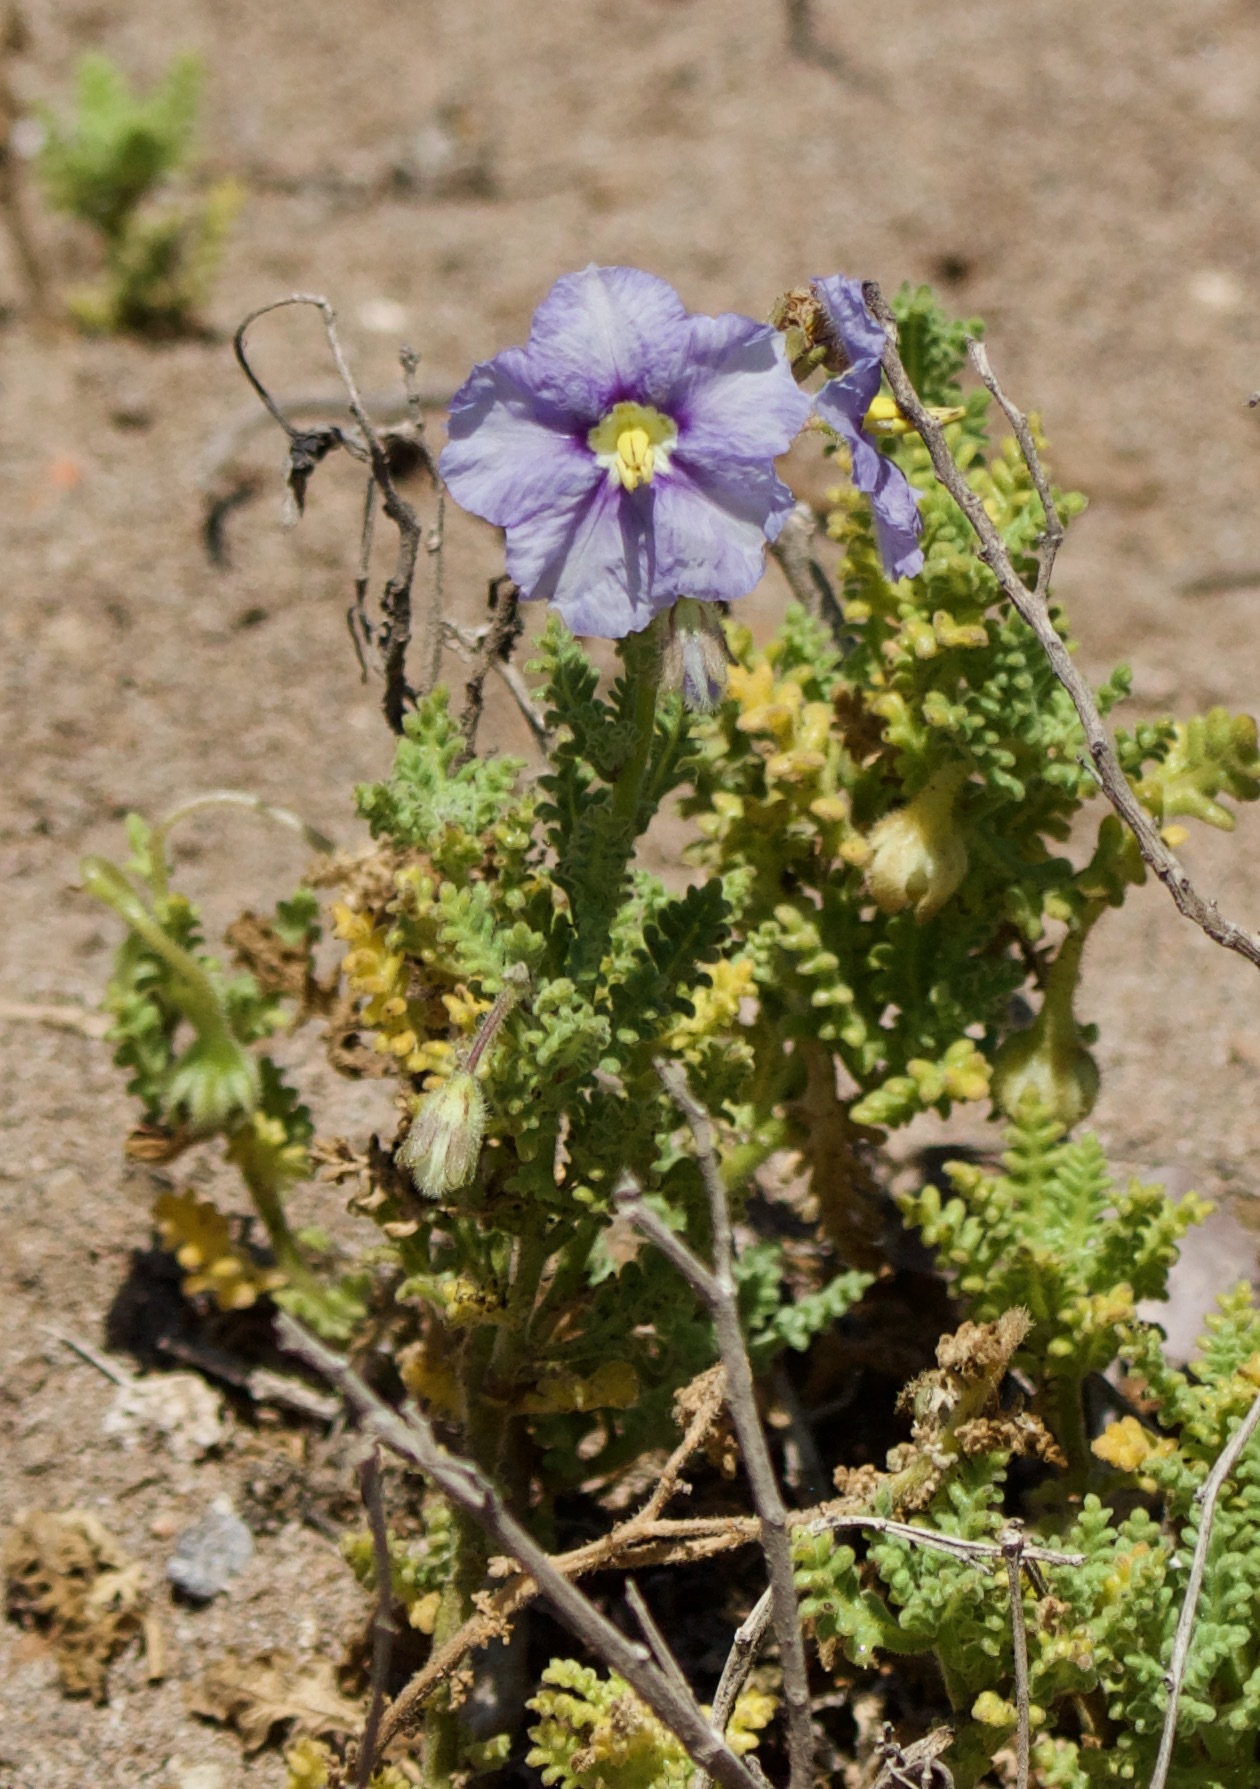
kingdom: Plantae
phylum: Tracheophyta
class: Magnoliopsida
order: Solanales
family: Solanaceae
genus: Solanum
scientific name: Solanum trinominum
